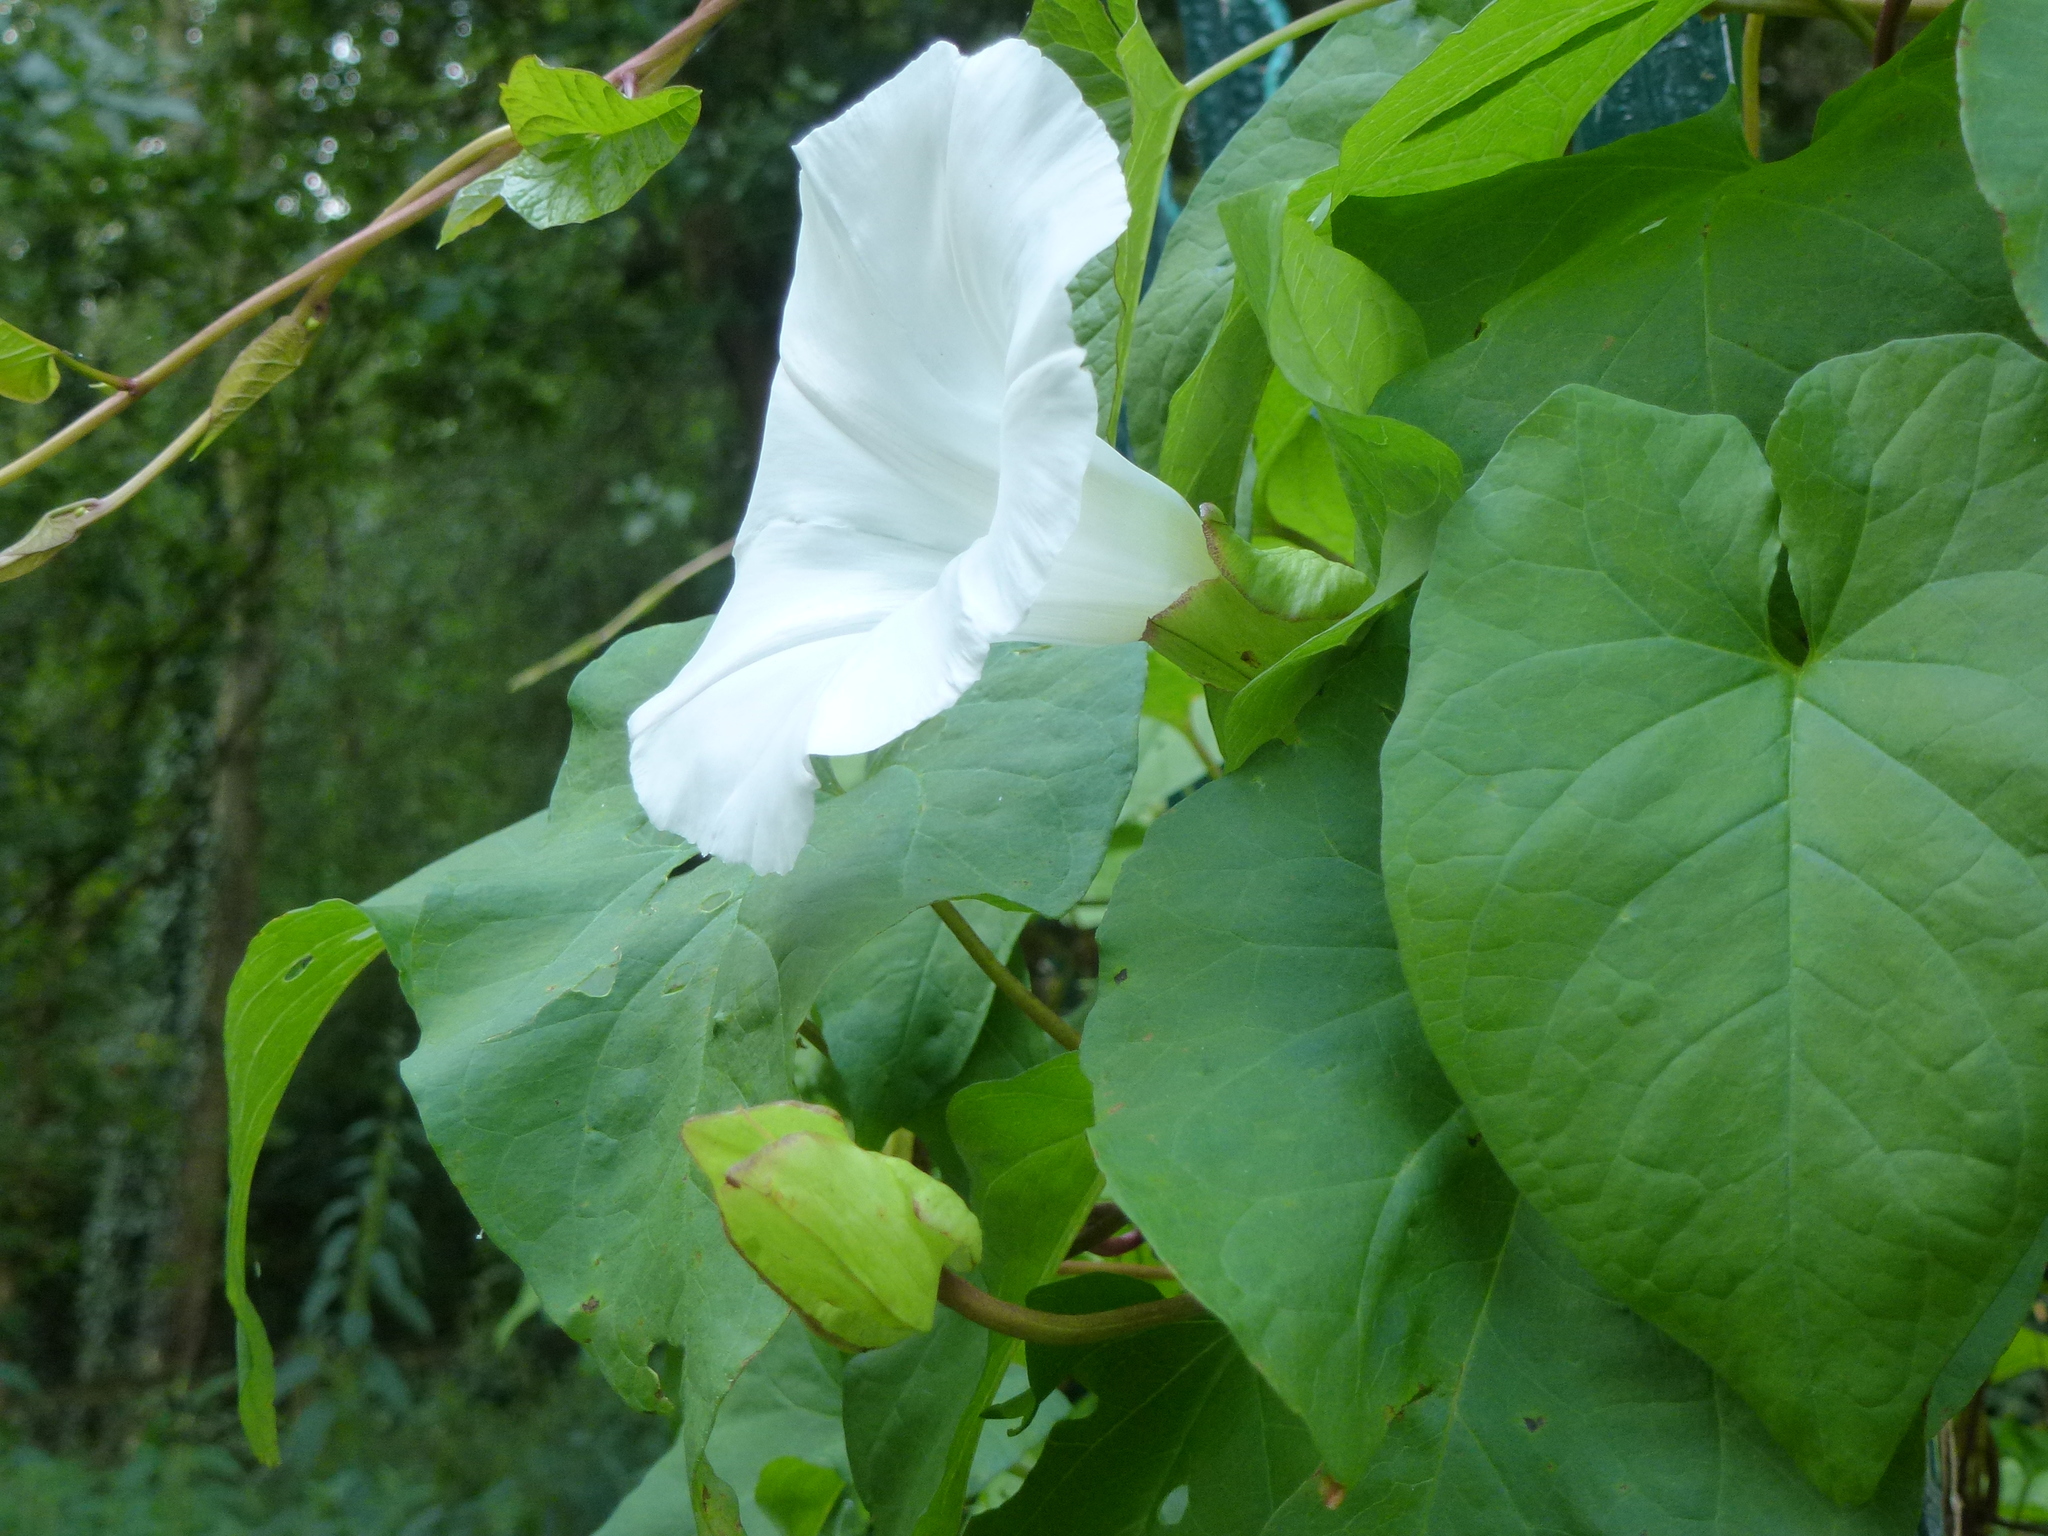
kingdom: Plantae
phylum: Tracheophyta
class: Magnoliopsida
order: Solanales
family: Convolvulaceae
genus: Calystegia
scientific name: Calystegia silvatica
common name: Large bindweed
